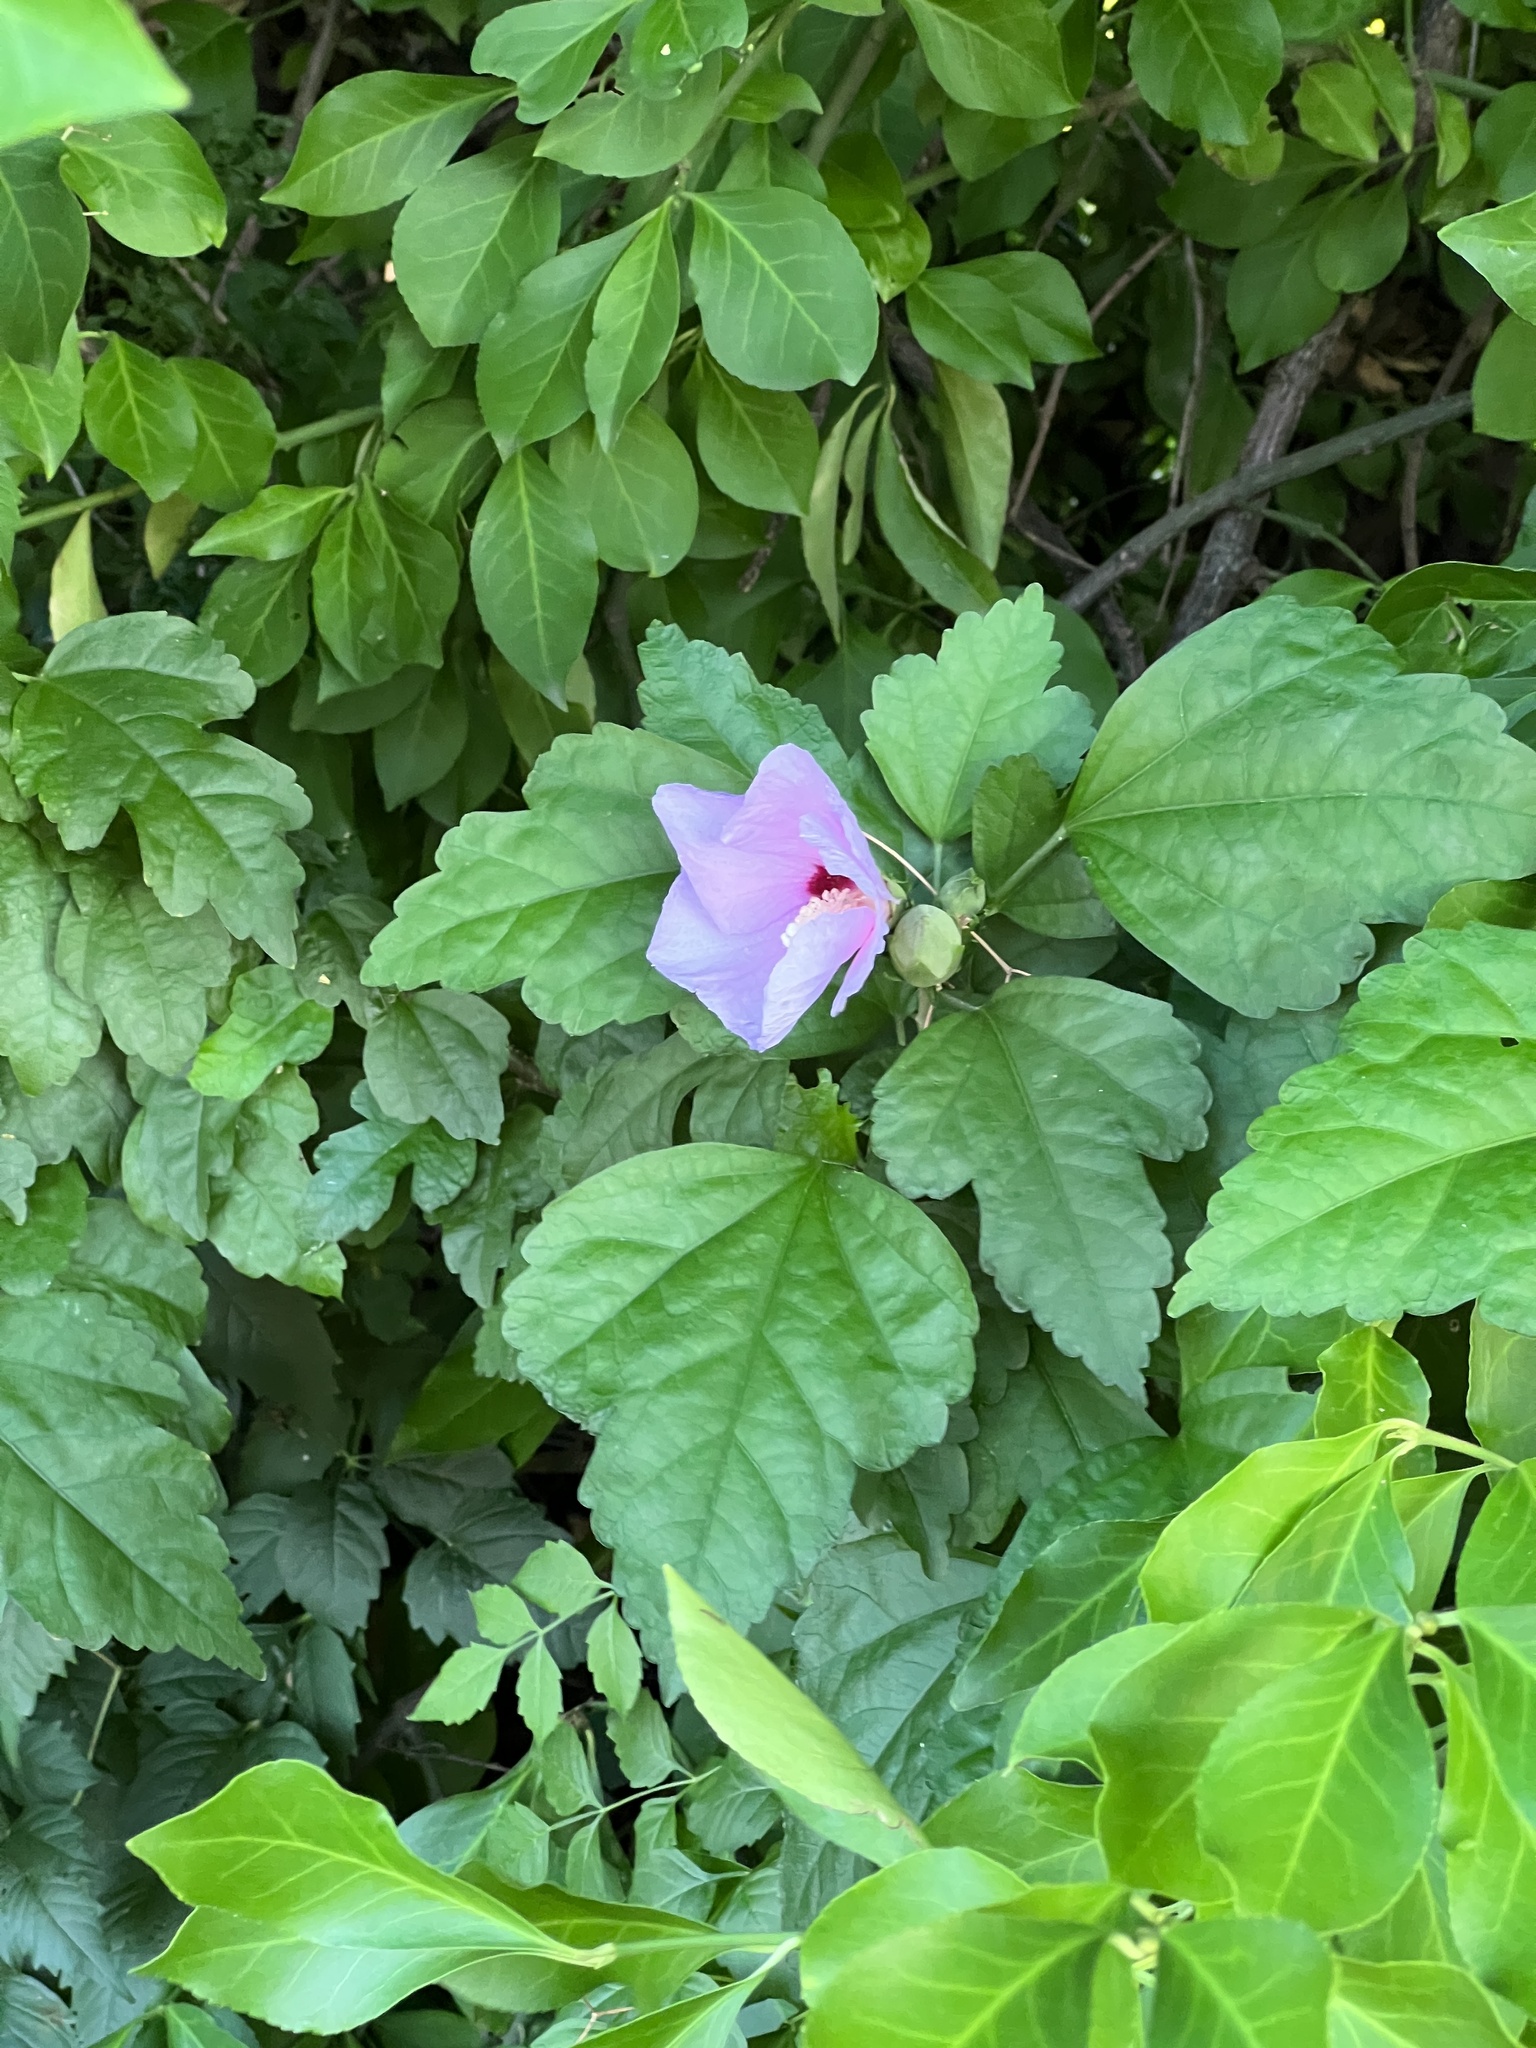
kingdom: Plantae
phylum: Tracheophyta
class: Magnoliopsida
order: Malvales
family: Malvaceae
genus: Hibiscus
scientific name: Hibiscus syriacus
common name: Syrian ketmia
